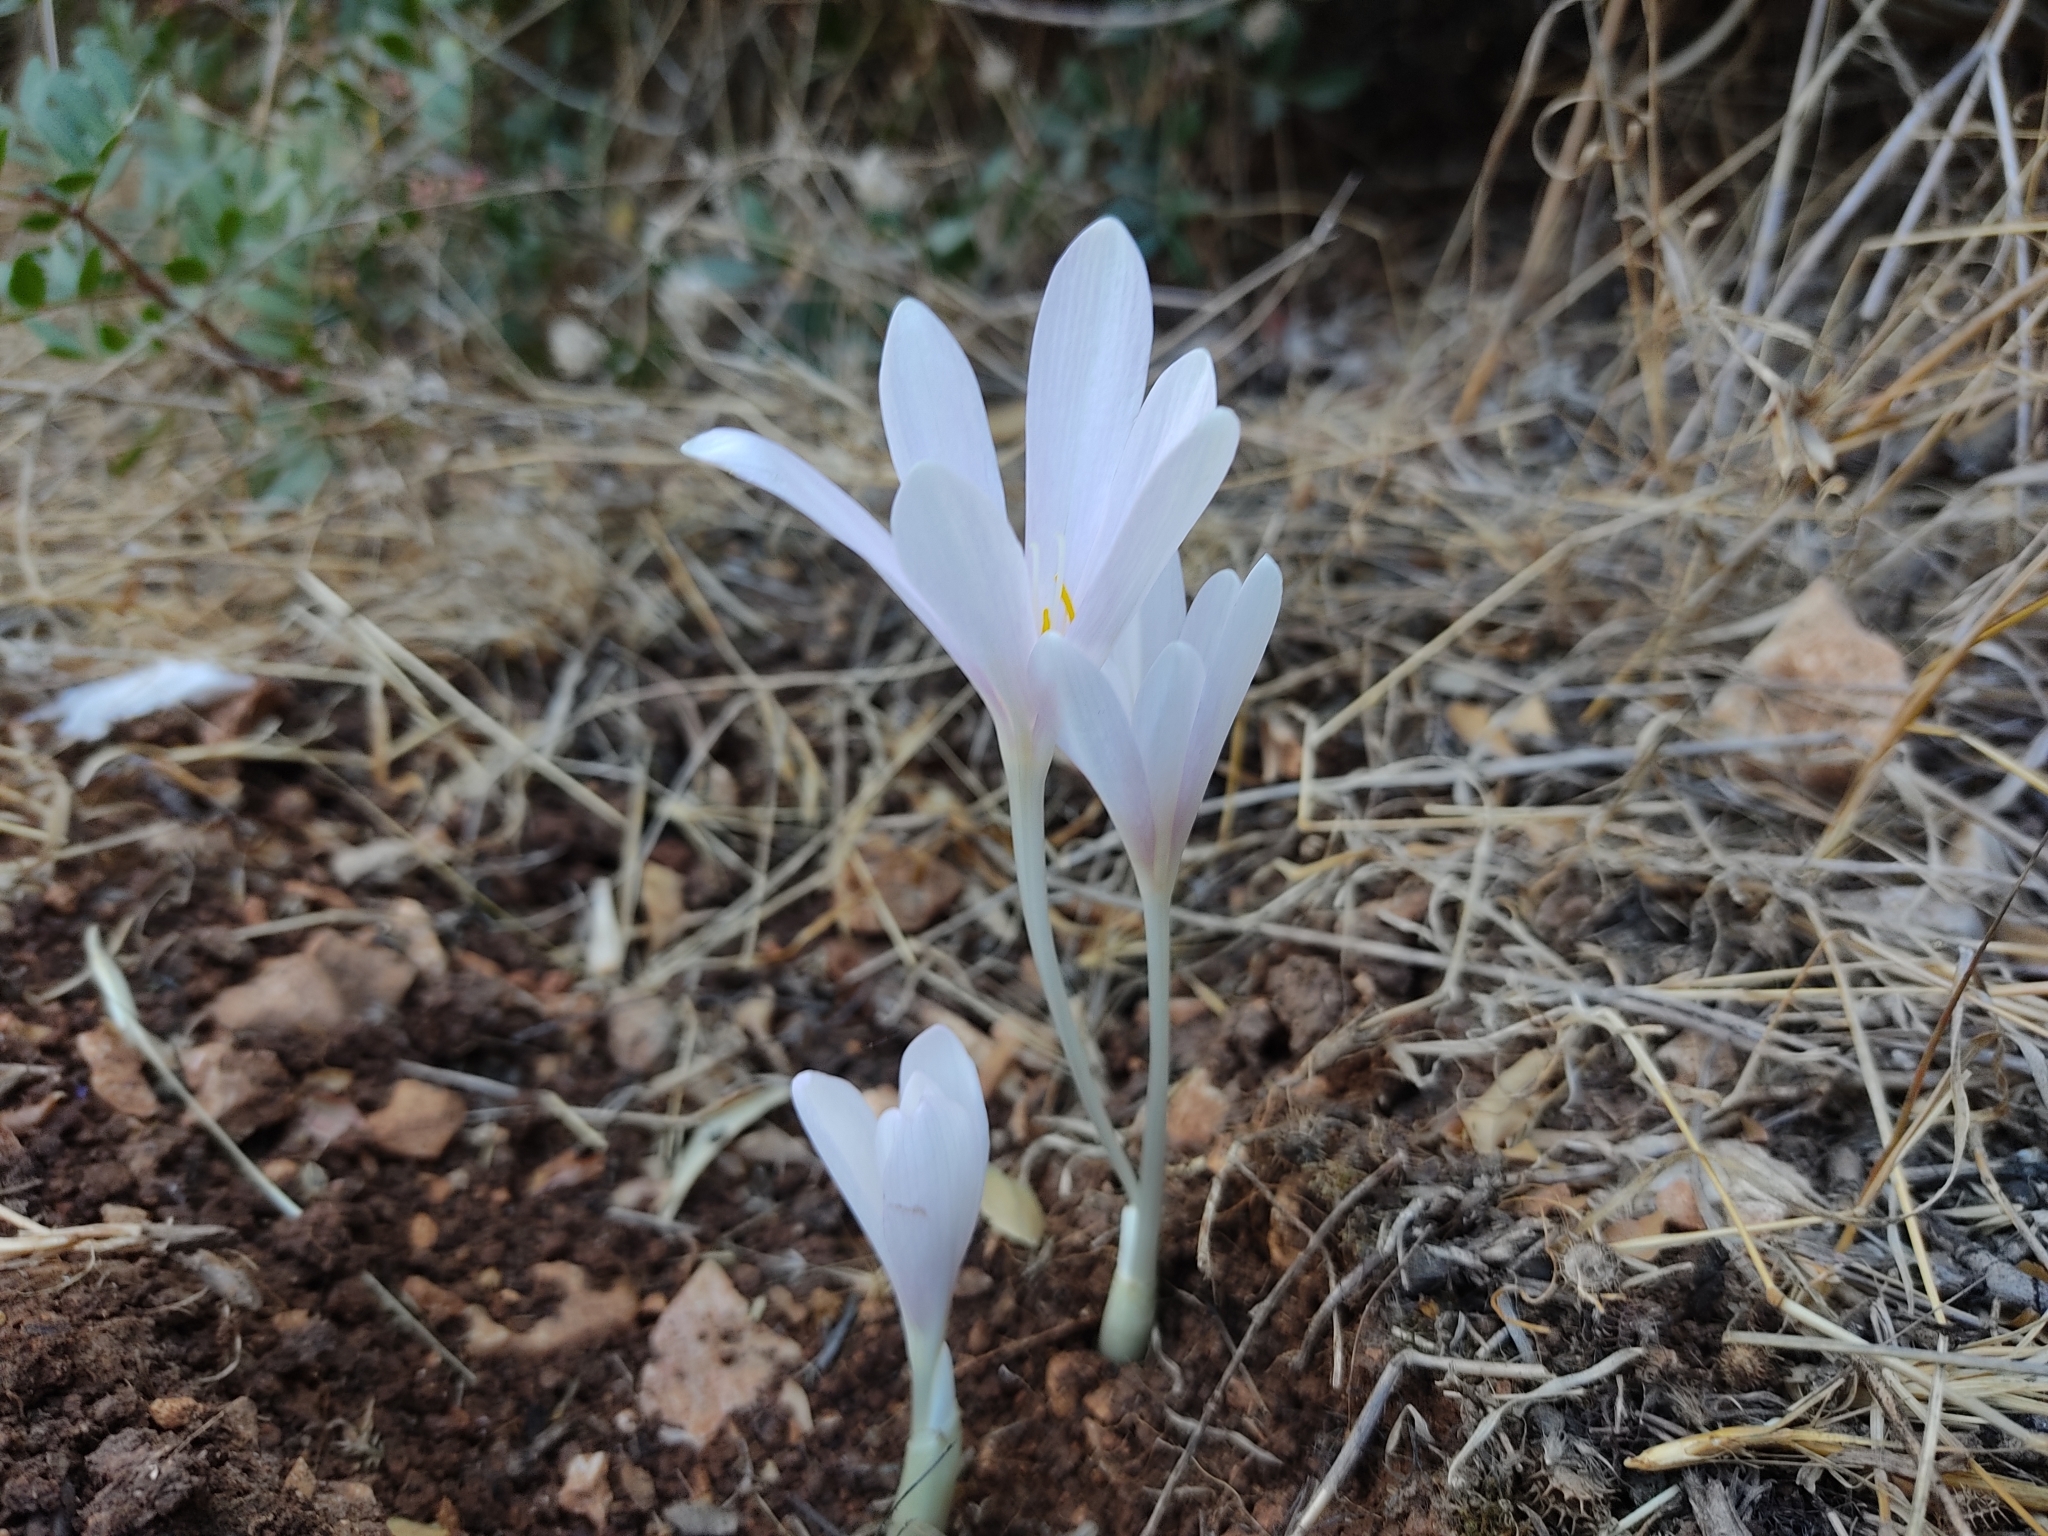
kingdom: Plantae
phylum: Tracheophyta
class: Liliopsida
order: Liliales
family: Colchicaceae
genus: Colchicum
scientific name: Colchicum hierosolymitanum
